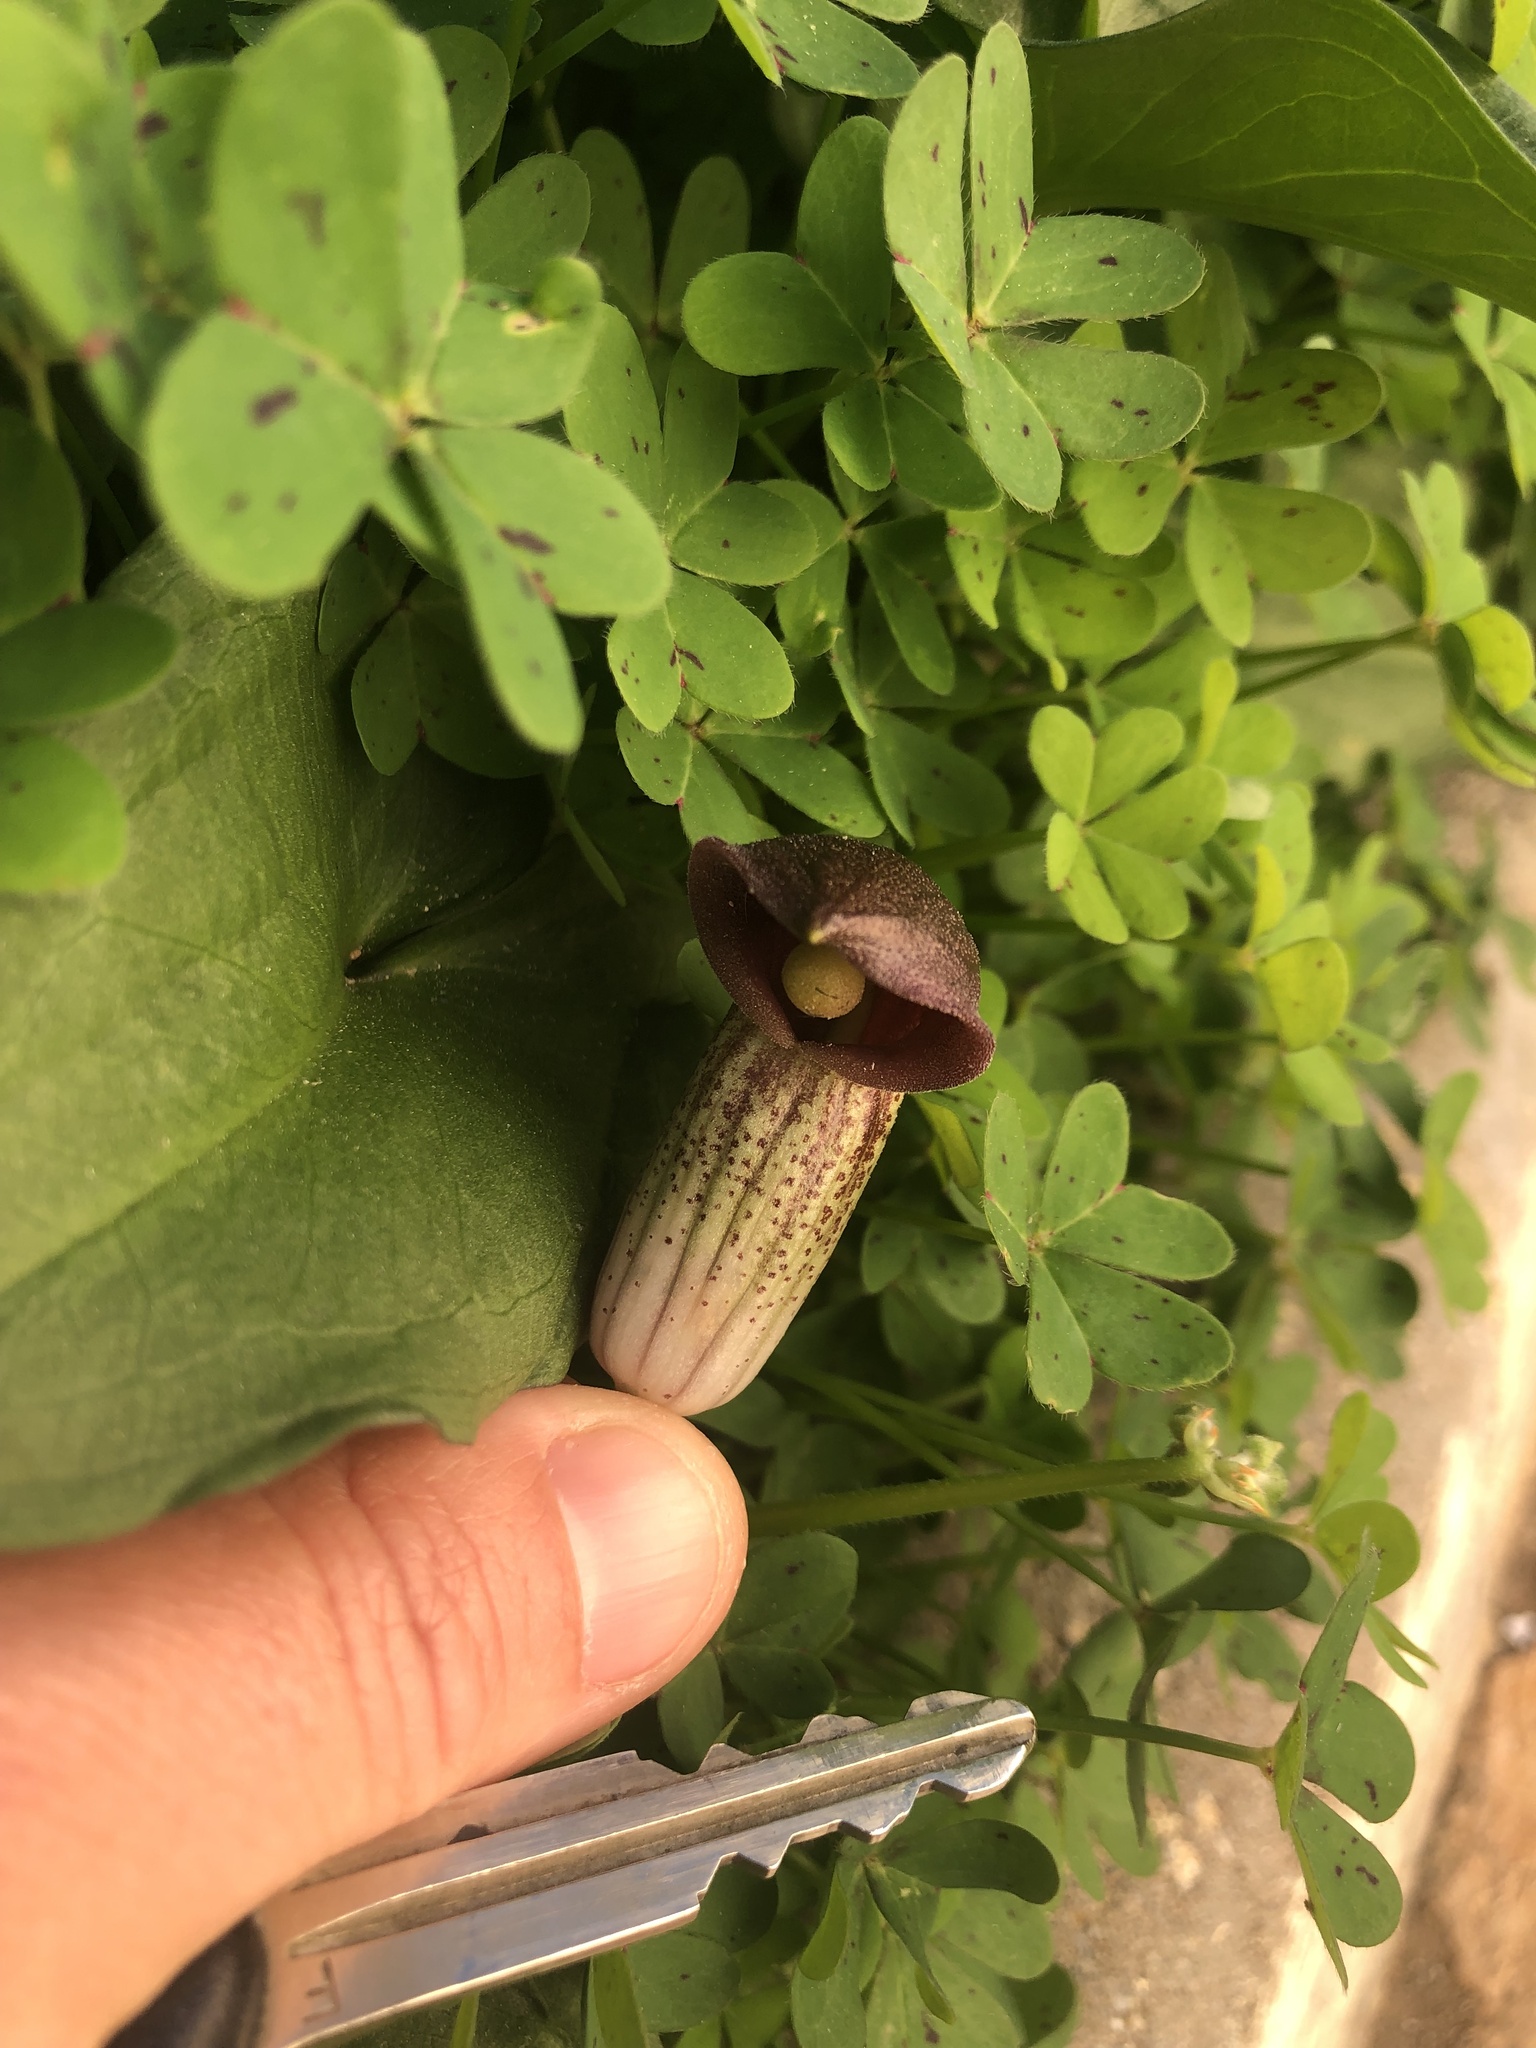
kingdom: Plantae
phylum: Tracheophyta
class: Liliopsida
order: Alismatales
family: Araceae
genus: Arisarum
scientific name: Arisarum simorrhinum
